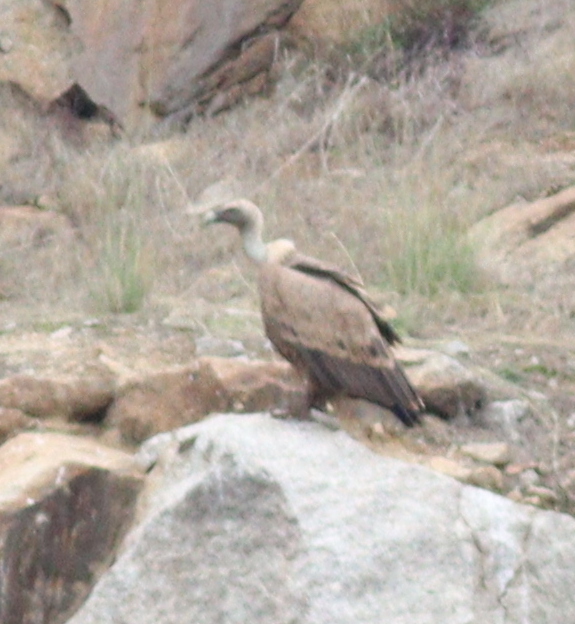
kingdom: Animalia
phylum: Chordata
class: Aves
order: Accipitriformes
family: Accipitridae
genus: Gyps
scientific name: Gyps fulvus
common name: Griffon vulture
